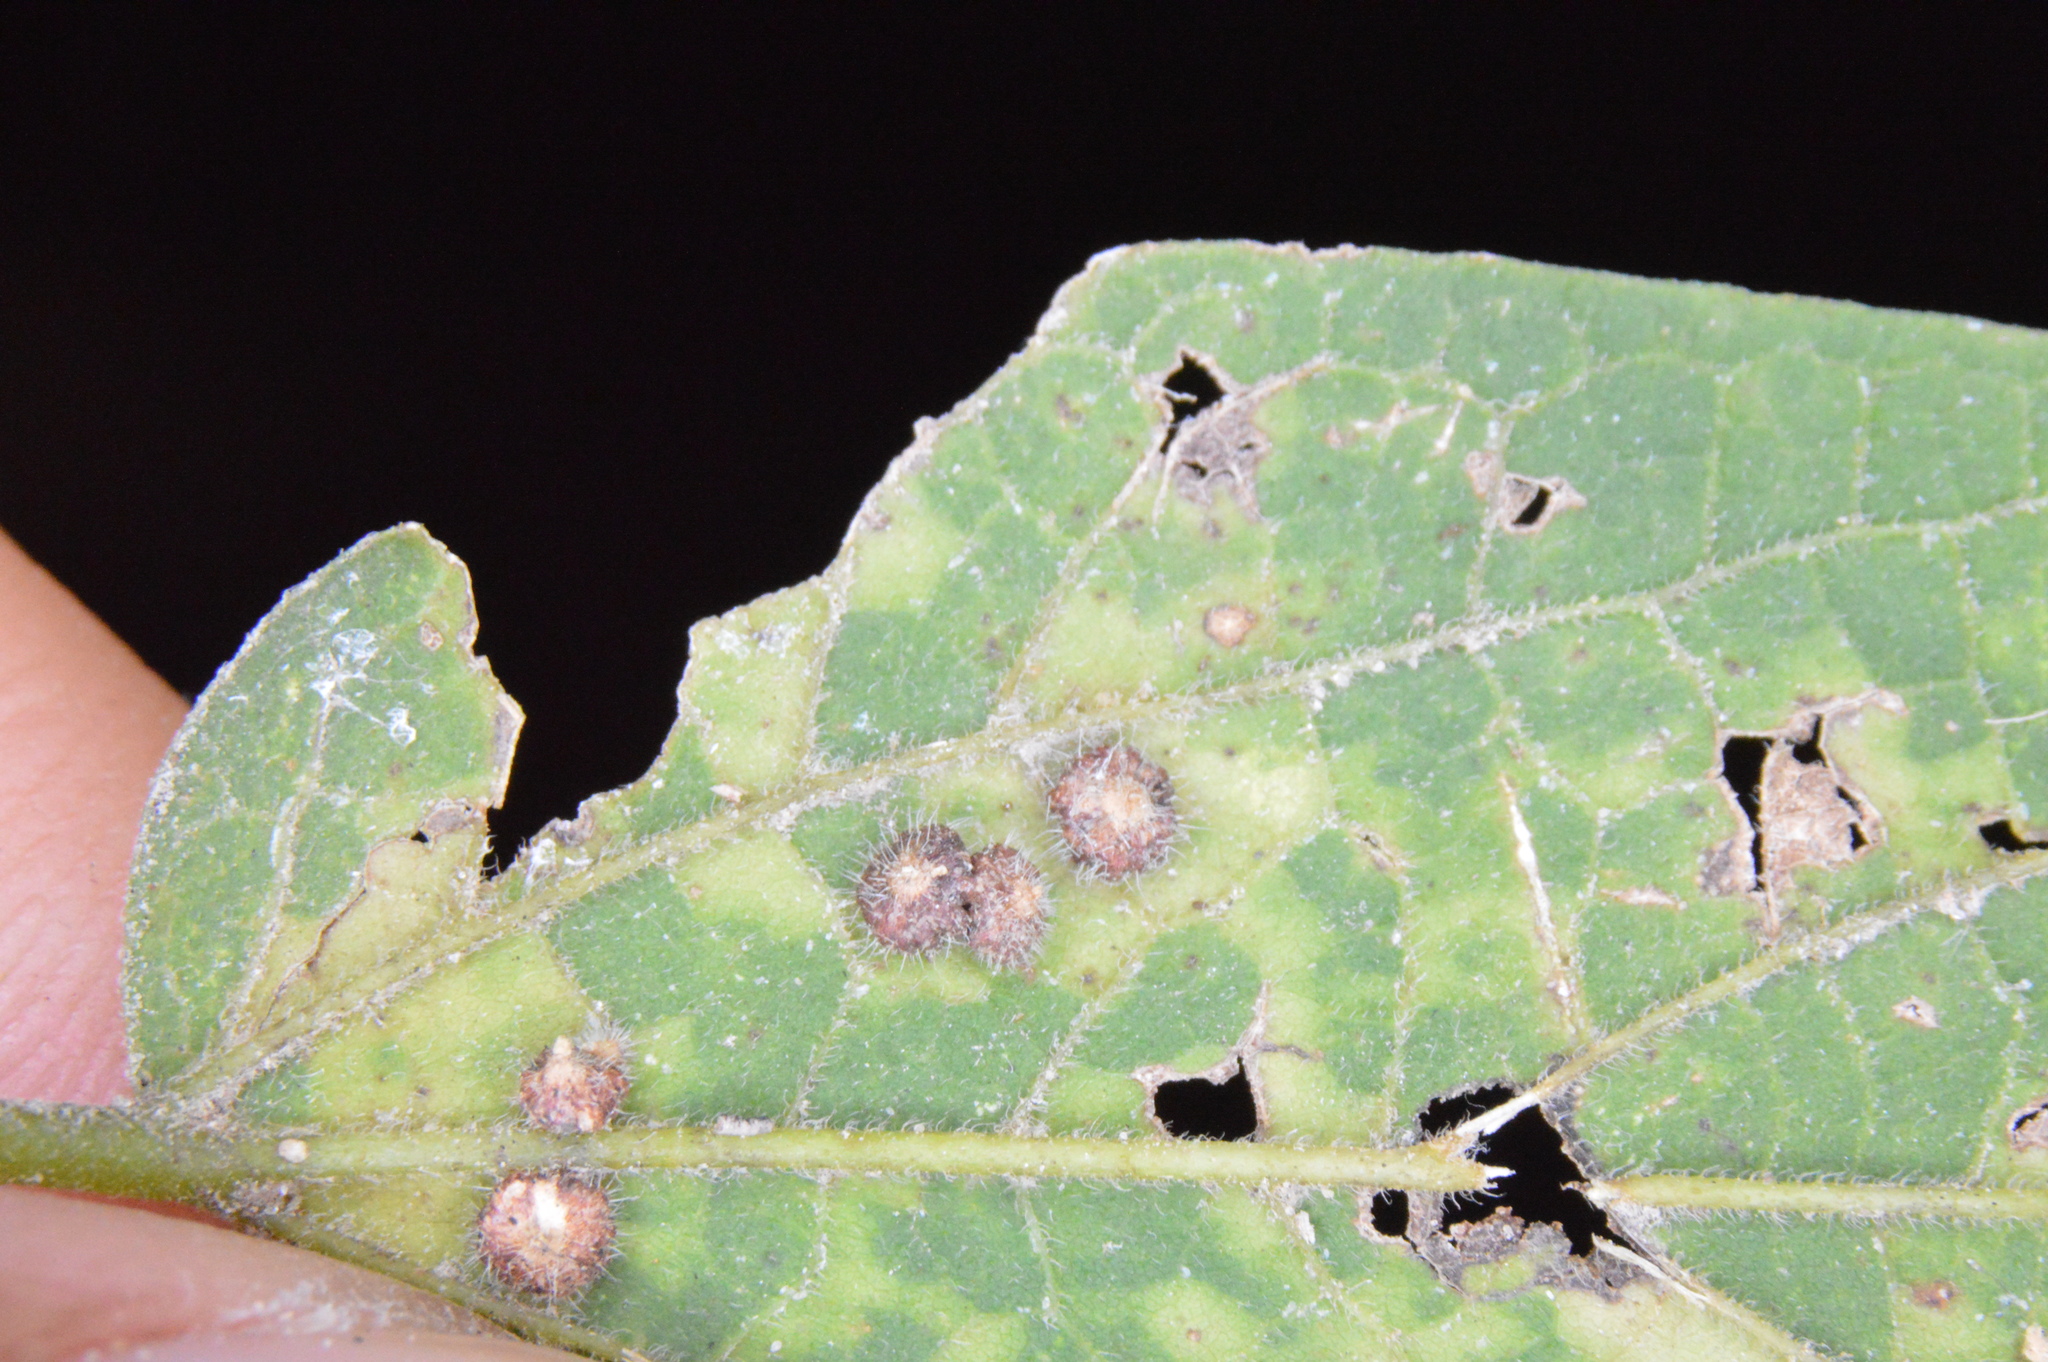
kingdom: Animalia
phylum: Arthropoda
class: Insecta
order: Diptera
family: Cecidomyiidae
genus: Celticecis
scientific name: Celticecis capsularis
